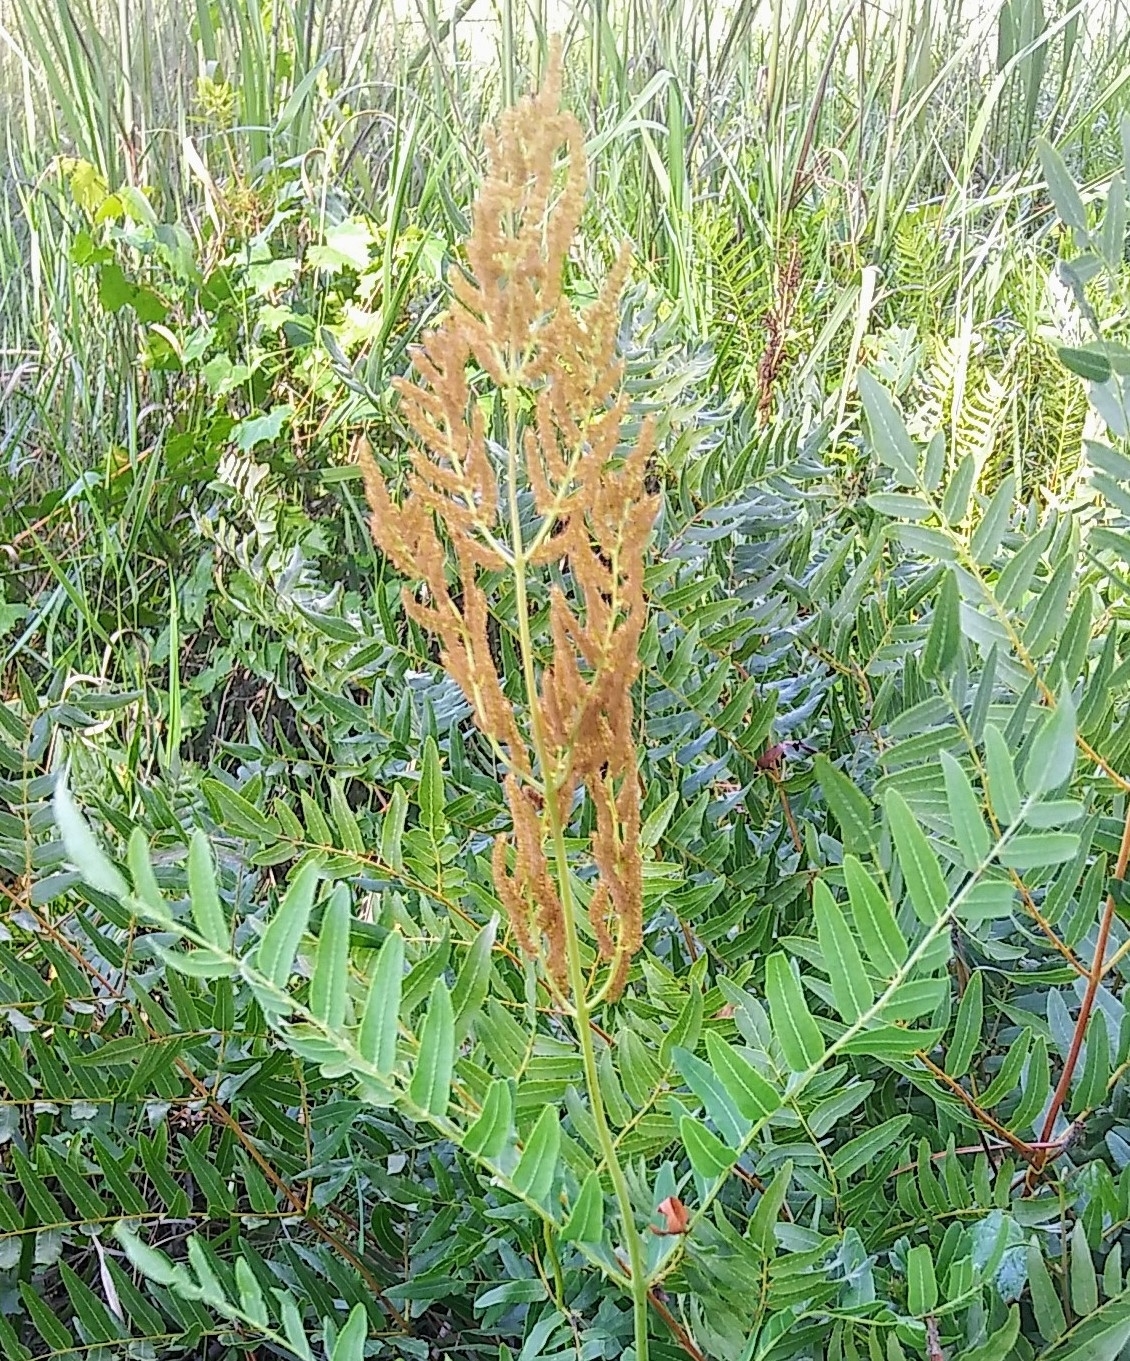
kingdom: Plantae
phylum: Tracheophyta
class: Polypodiopsida
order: Osmundales
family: Osmundaceae
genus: Osmunda
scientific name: Osmunda spectabilis
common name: American royal fern
